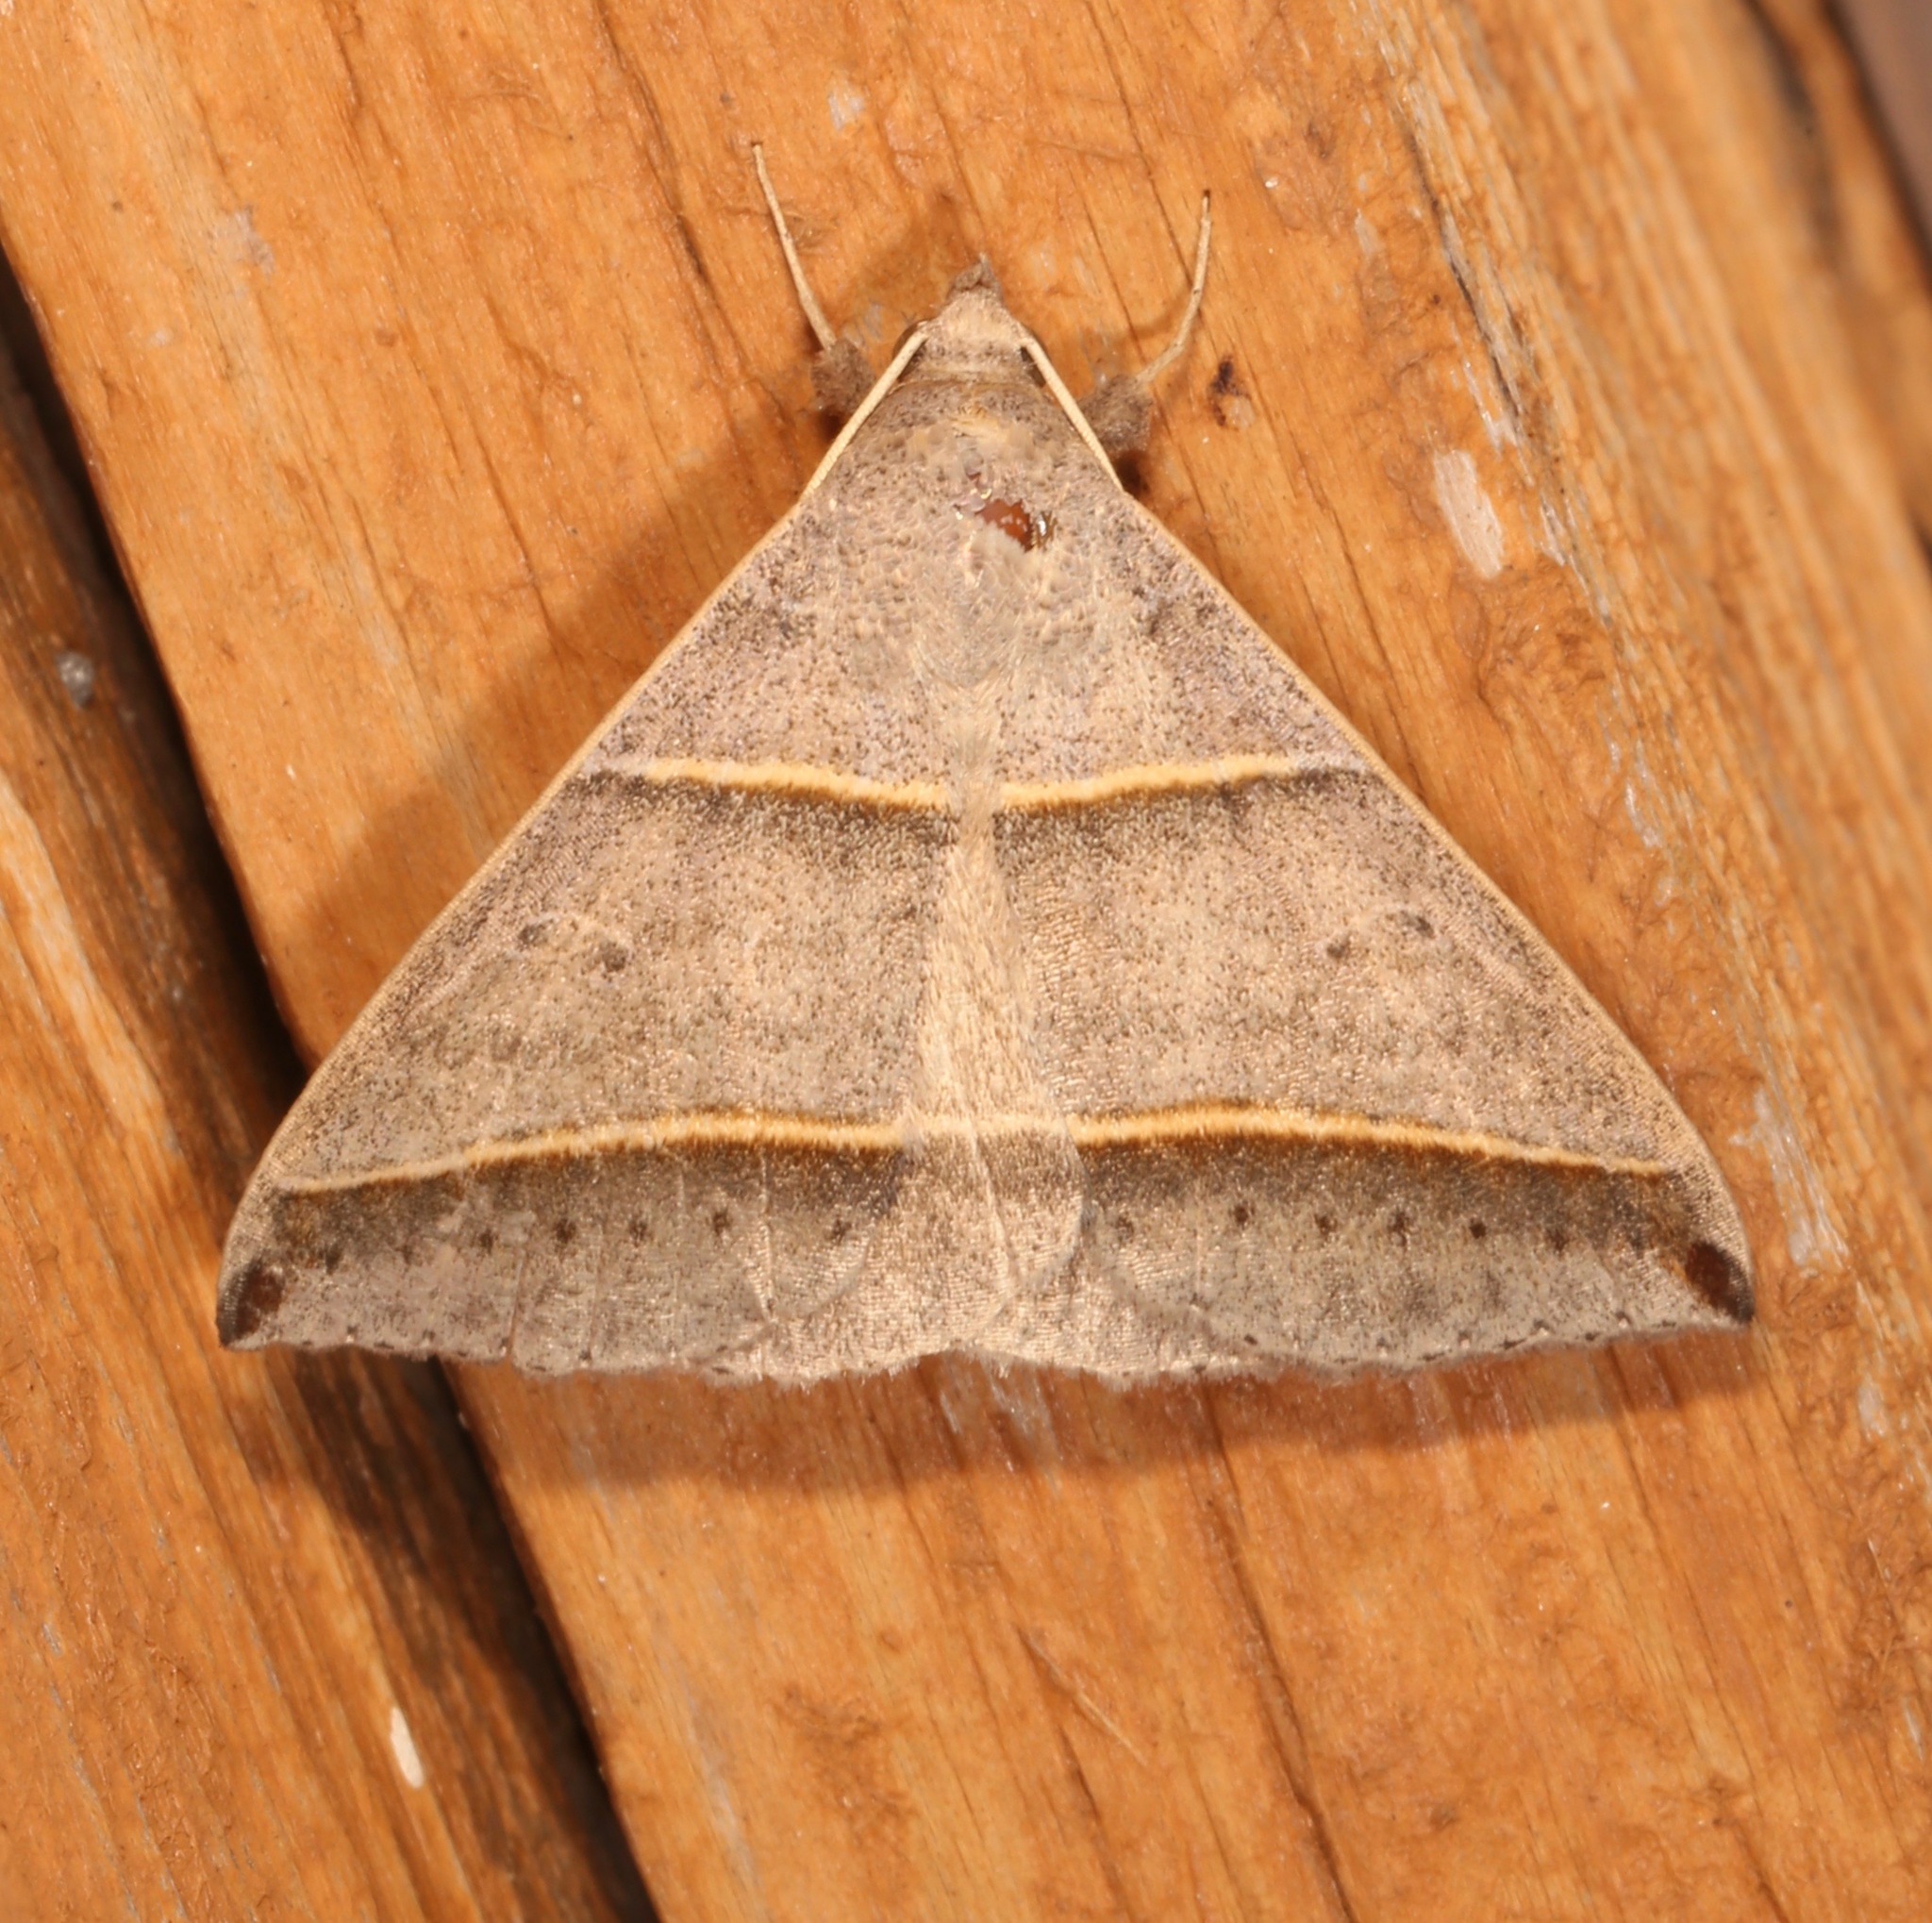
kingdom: Animalia
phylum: Arthropoda
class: Insecta
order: Lepidoptera
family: Erebidae
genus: Ptichodis
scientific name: Ptichodis vinculum
